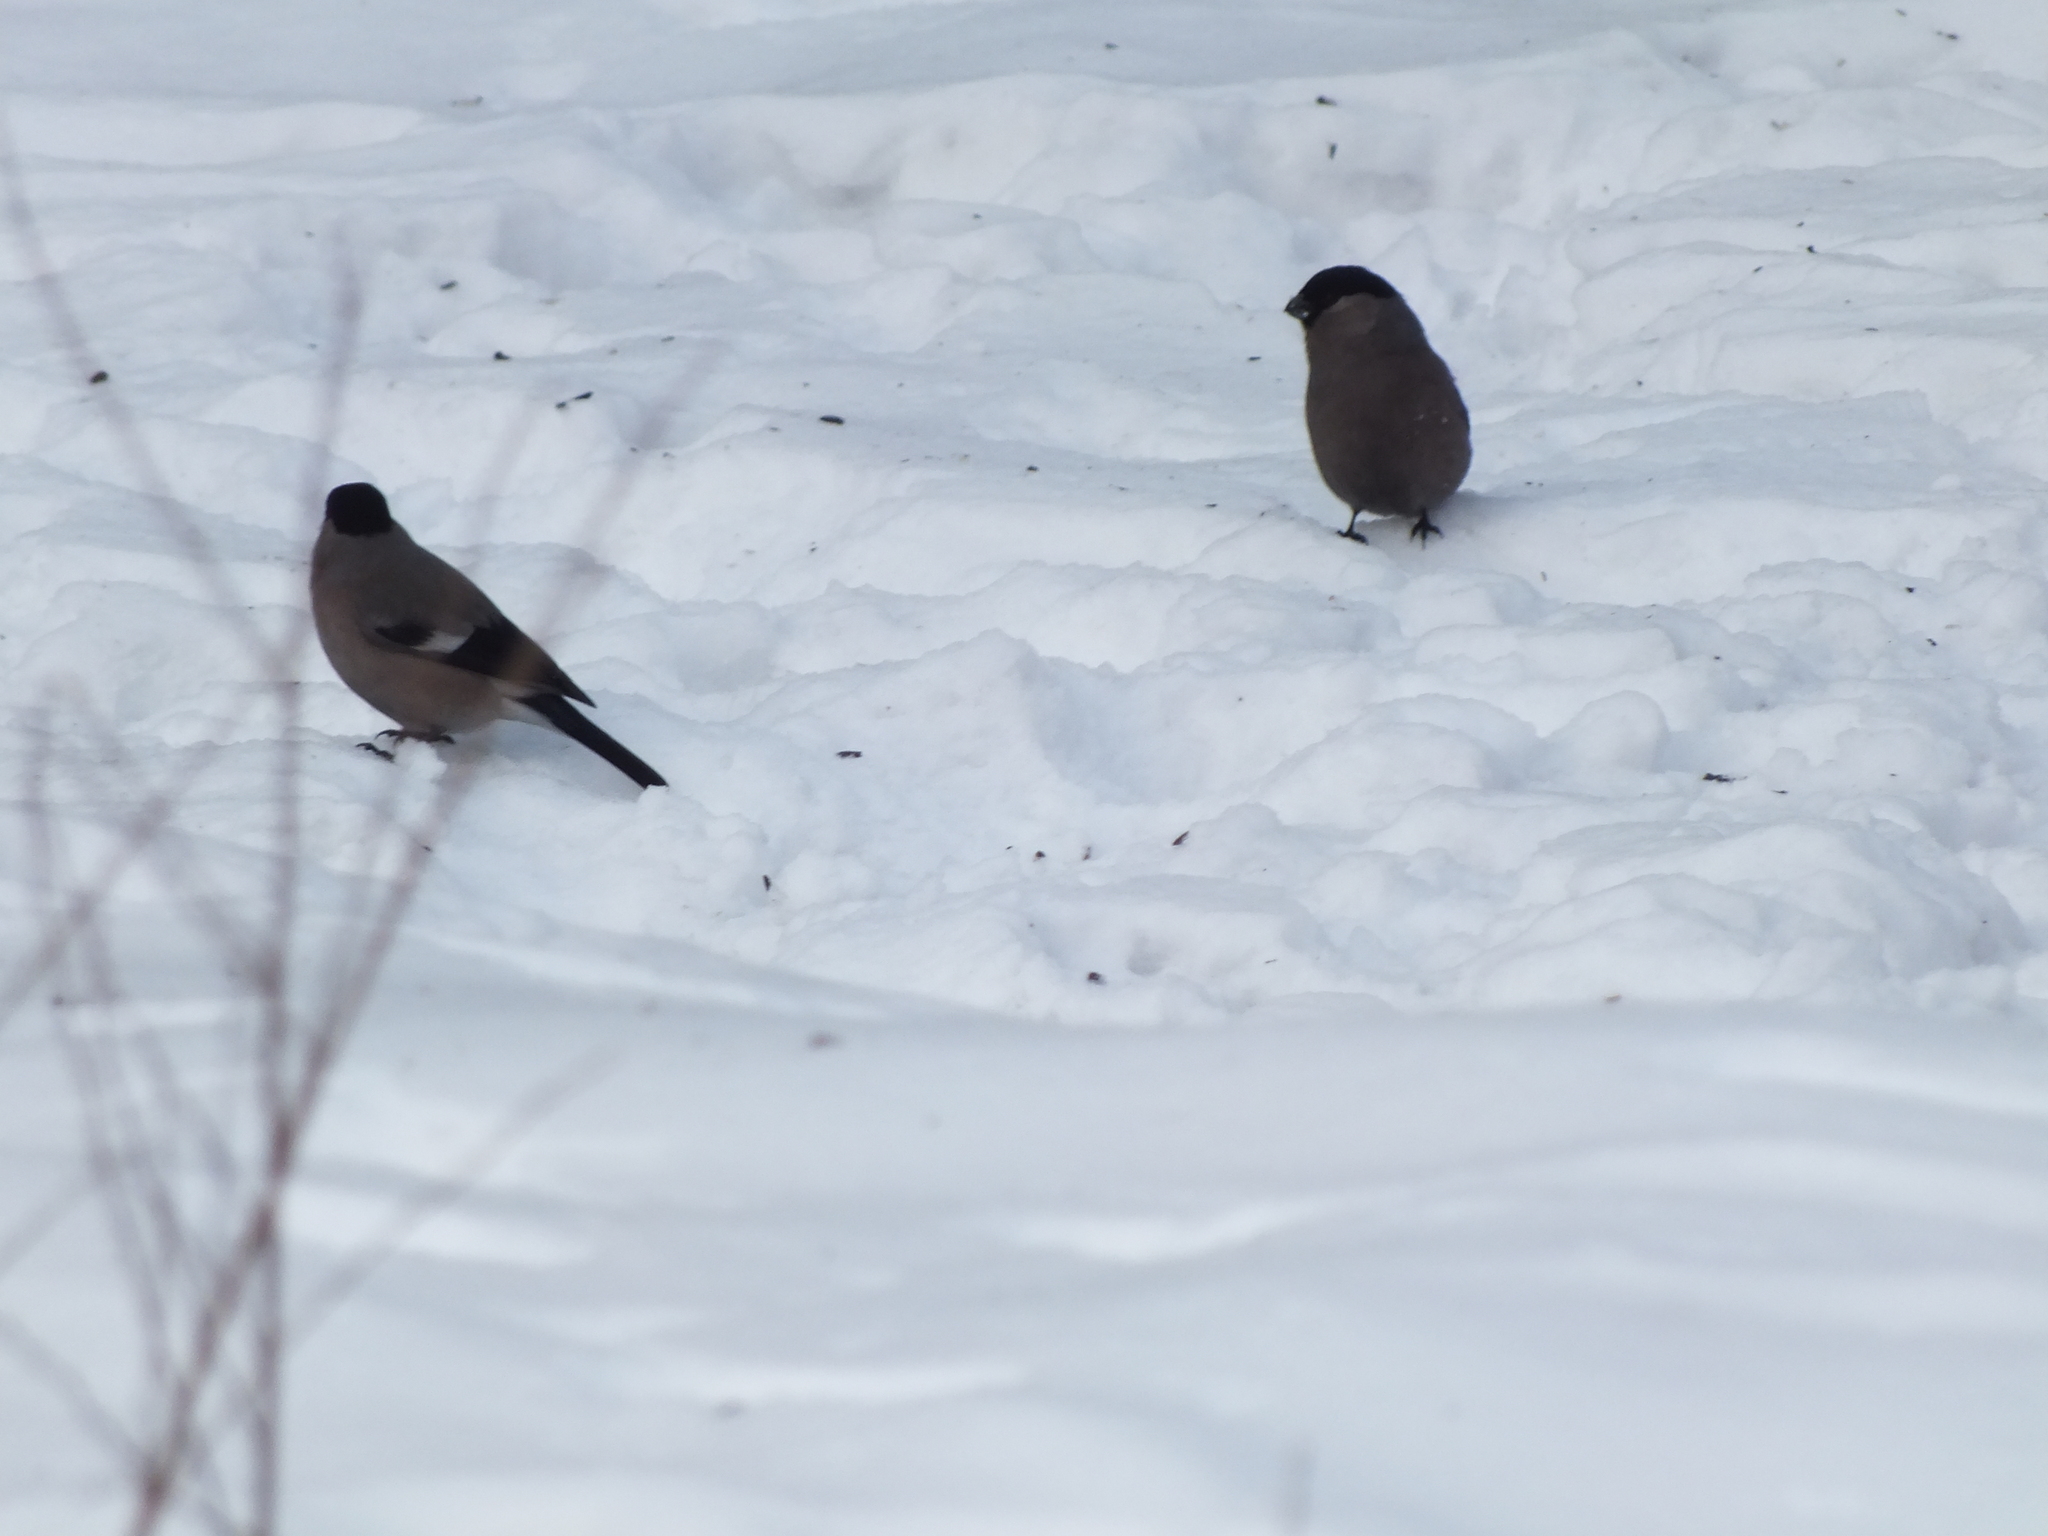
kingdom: Animalia
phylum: Chordata
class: Aves
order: Passeriformes
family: Fringillidae
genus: Pyrrhula
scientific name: Pyrrhula pyrrhula
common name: Eurasian bullfinch
